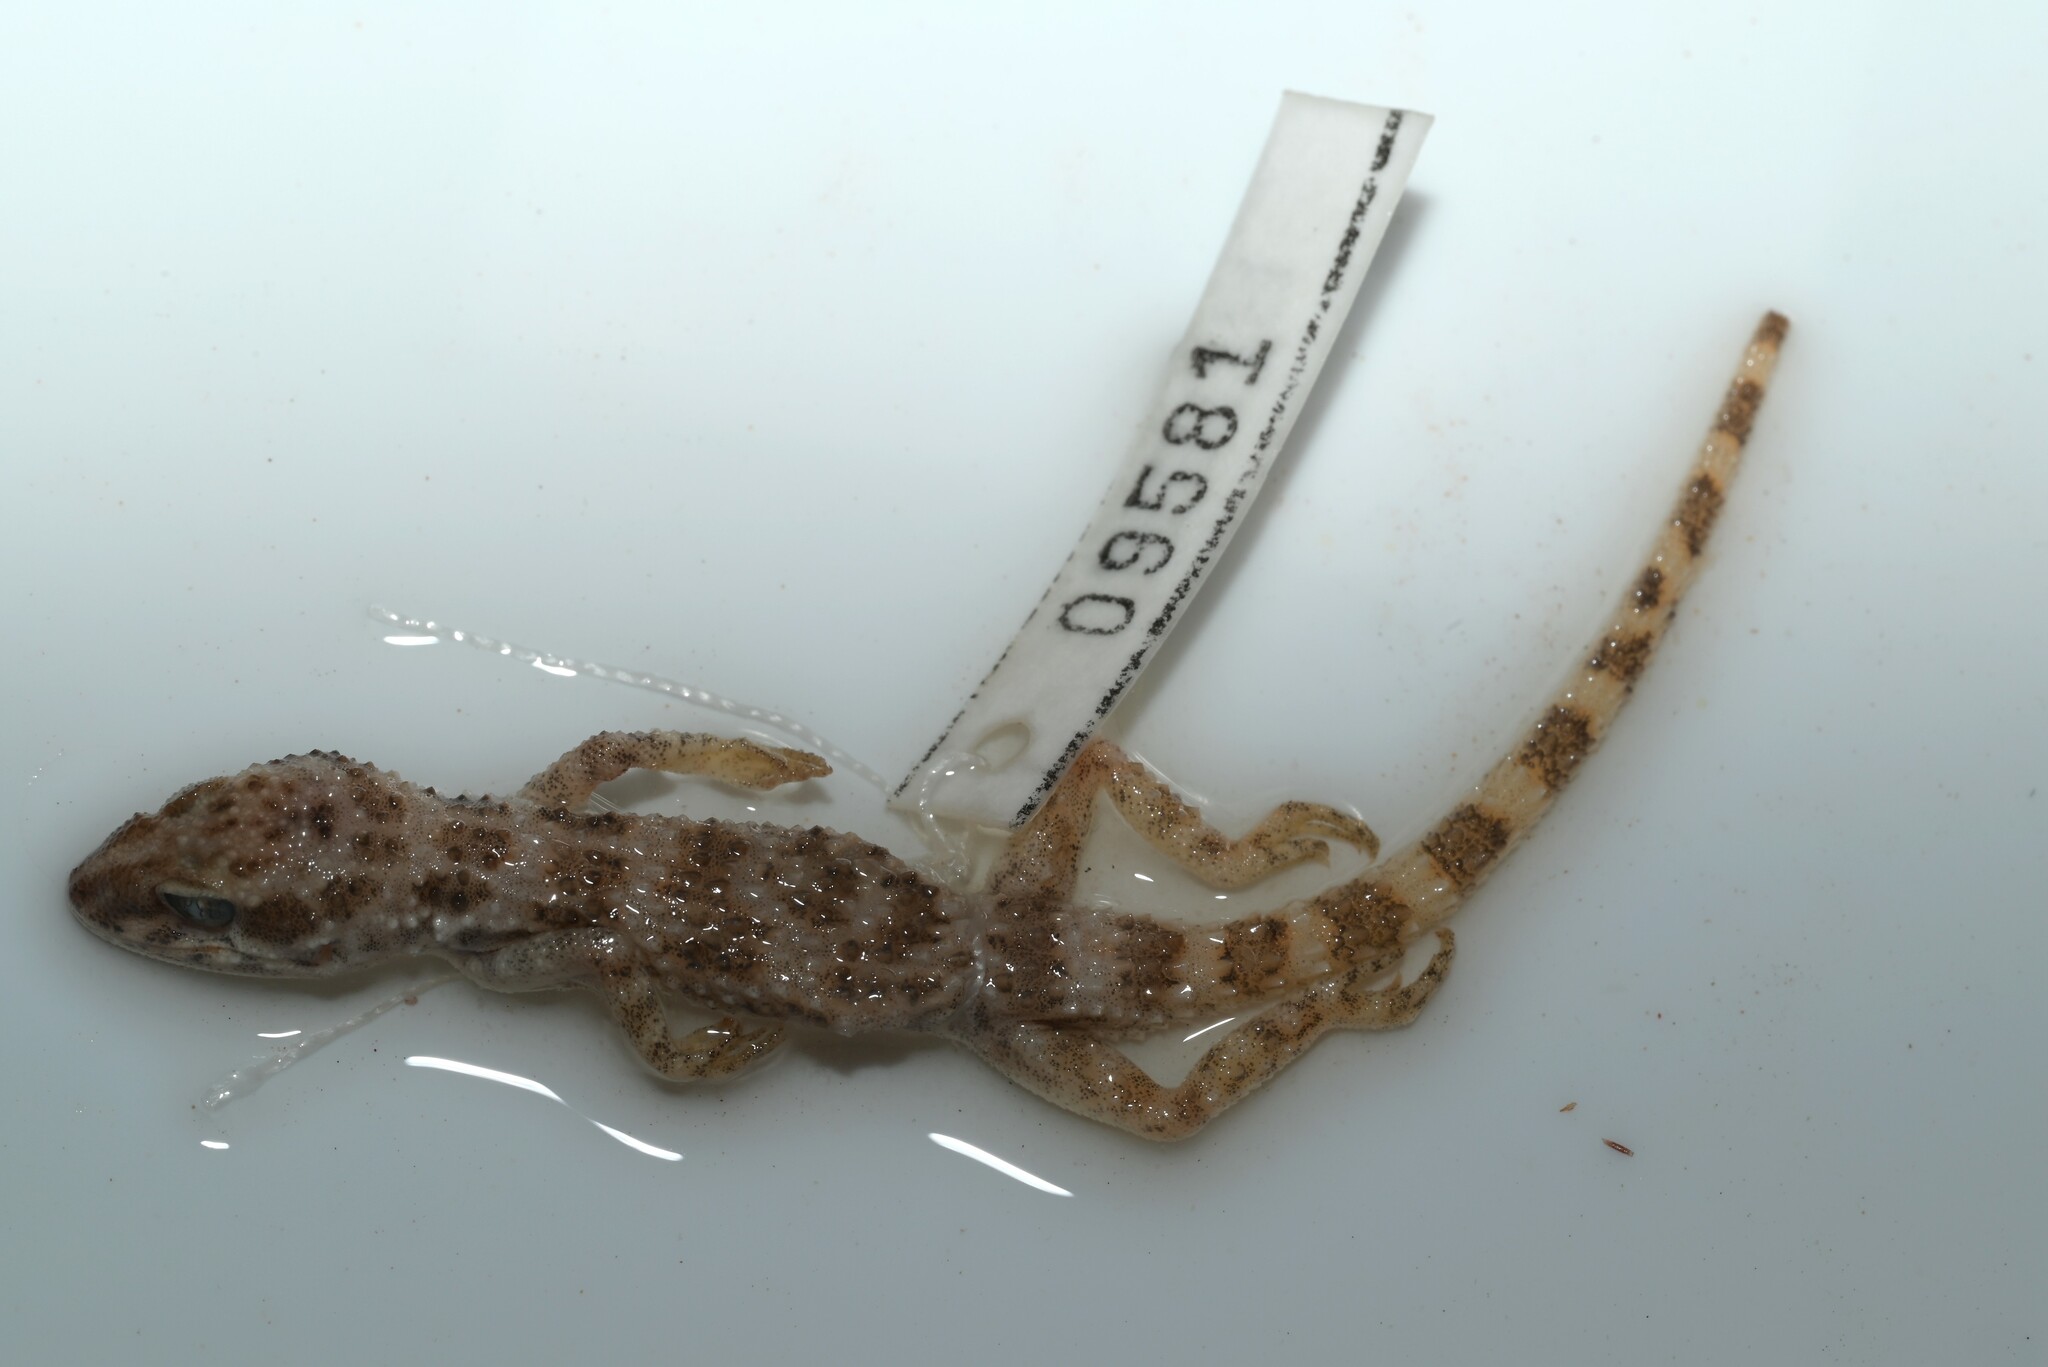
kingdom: Animalia
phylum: Chordata
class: Squamata
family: Gekkonidae
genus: Bunopus
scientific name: Bunopus tuberculatus
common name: Southern tuberculated gecko
